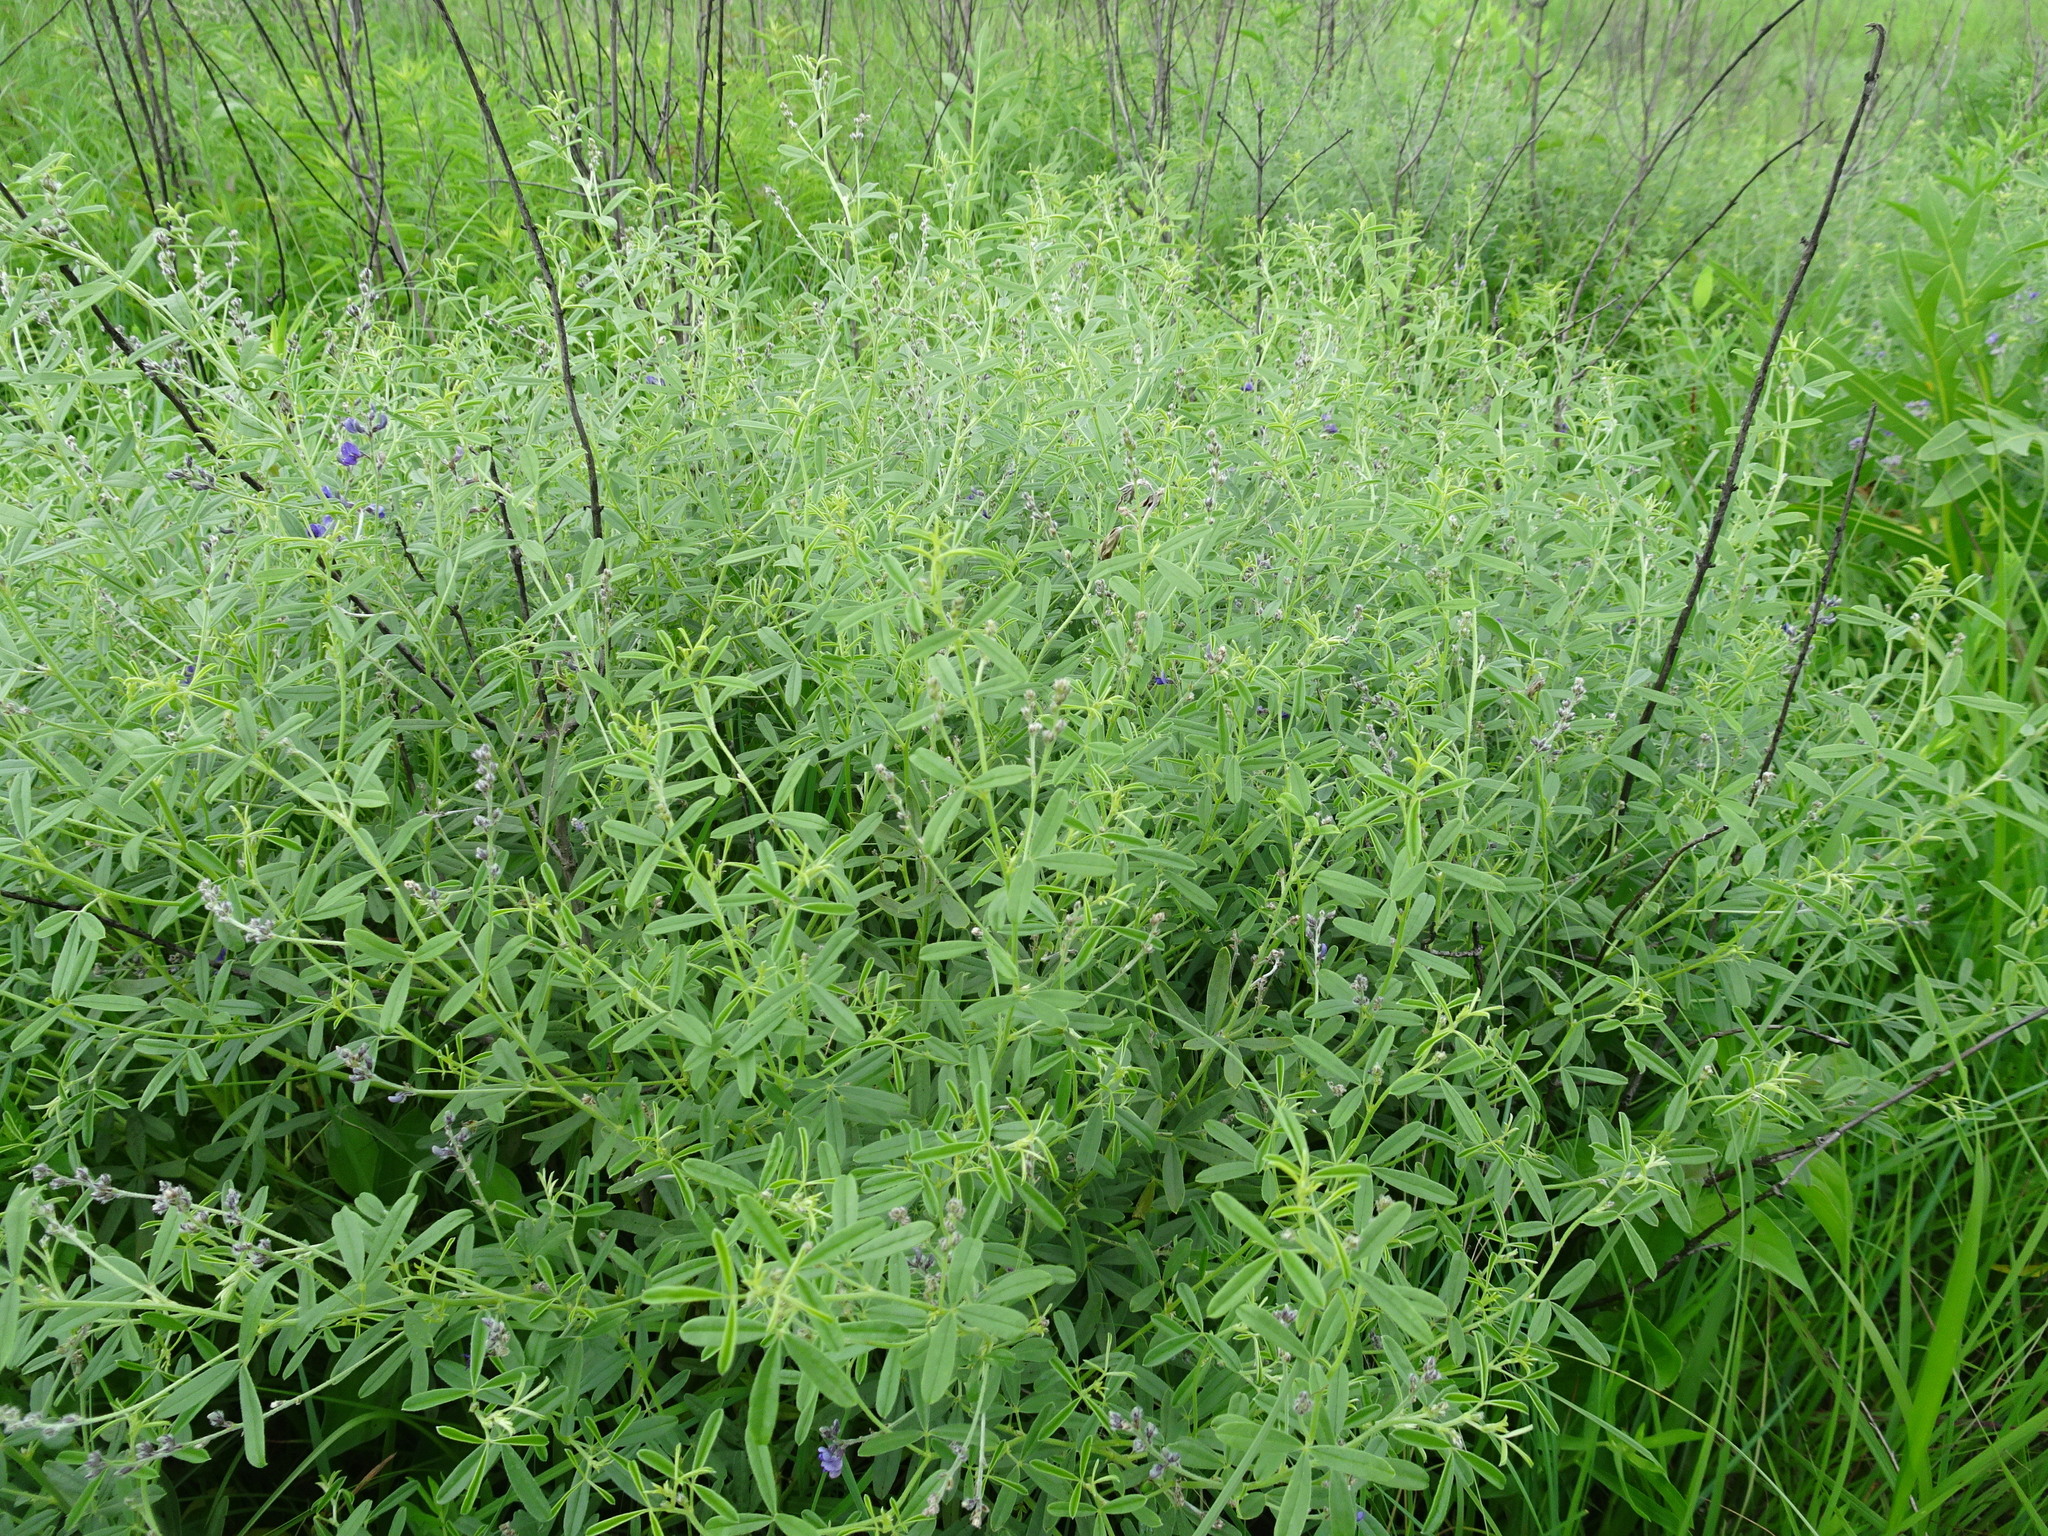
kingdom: Plantae
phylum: Tracheophyta
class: Magnoliopsida
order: Fabales
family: Fabaceae
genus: Pediomelum
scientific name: Pediomelum tenuiflorum
